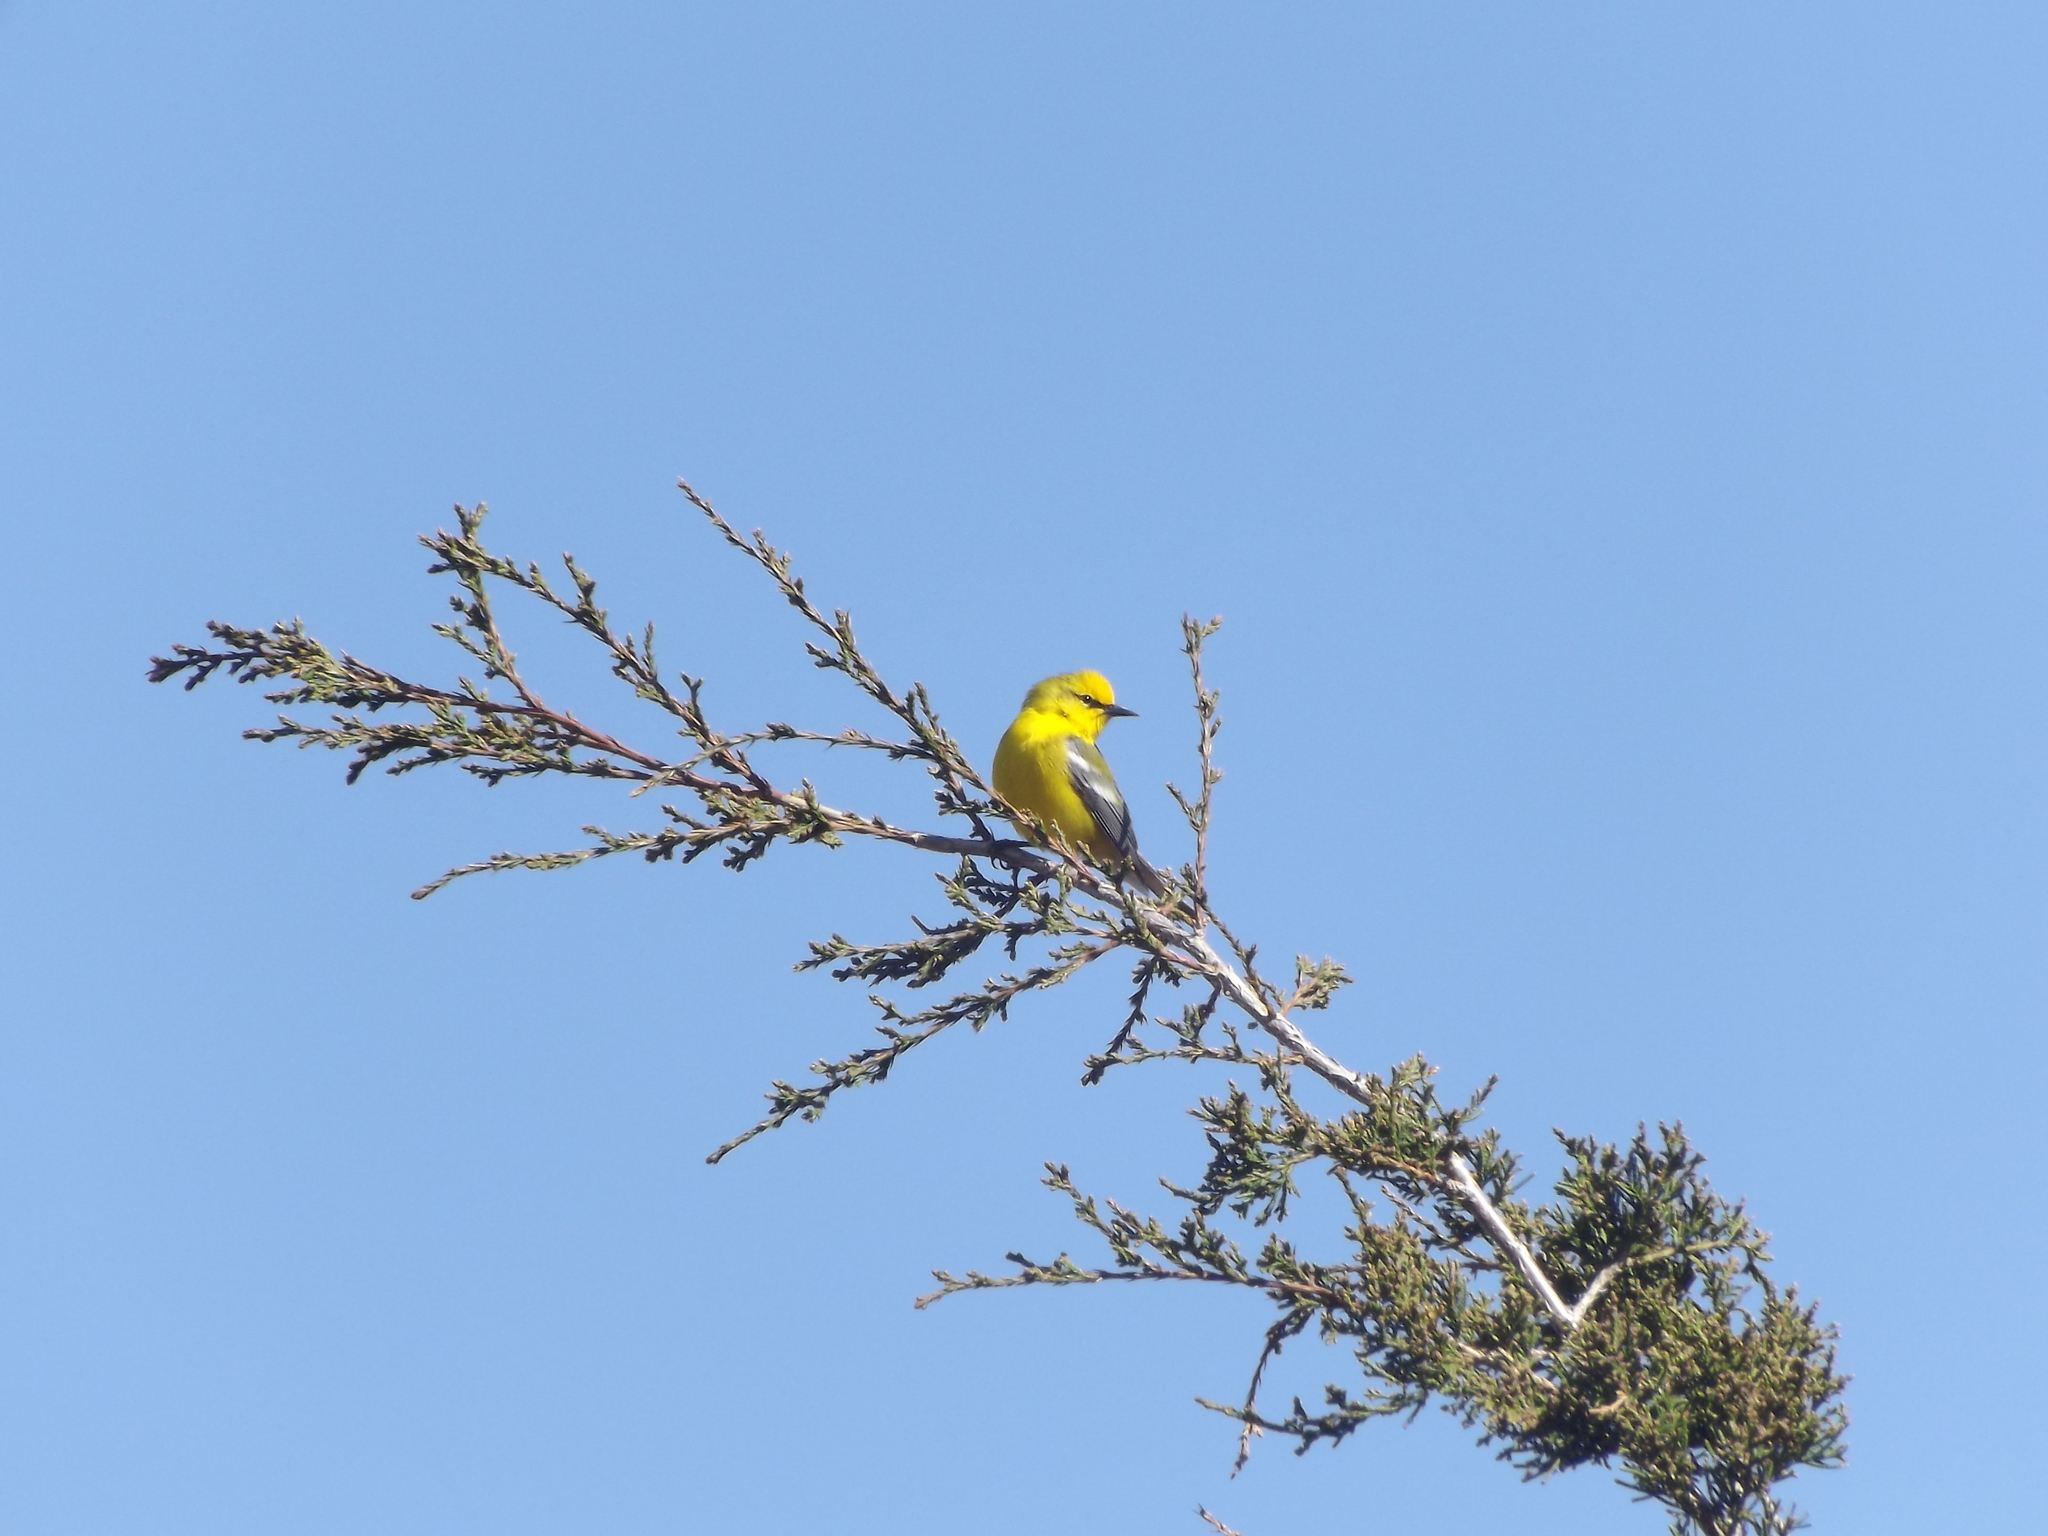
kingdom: Animalia
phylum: Chordata
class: Aves
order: Passeriformes
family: Parulidae
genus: Vermivora
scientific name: Vermivora cyanoptera
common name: Blue-winged warbler
